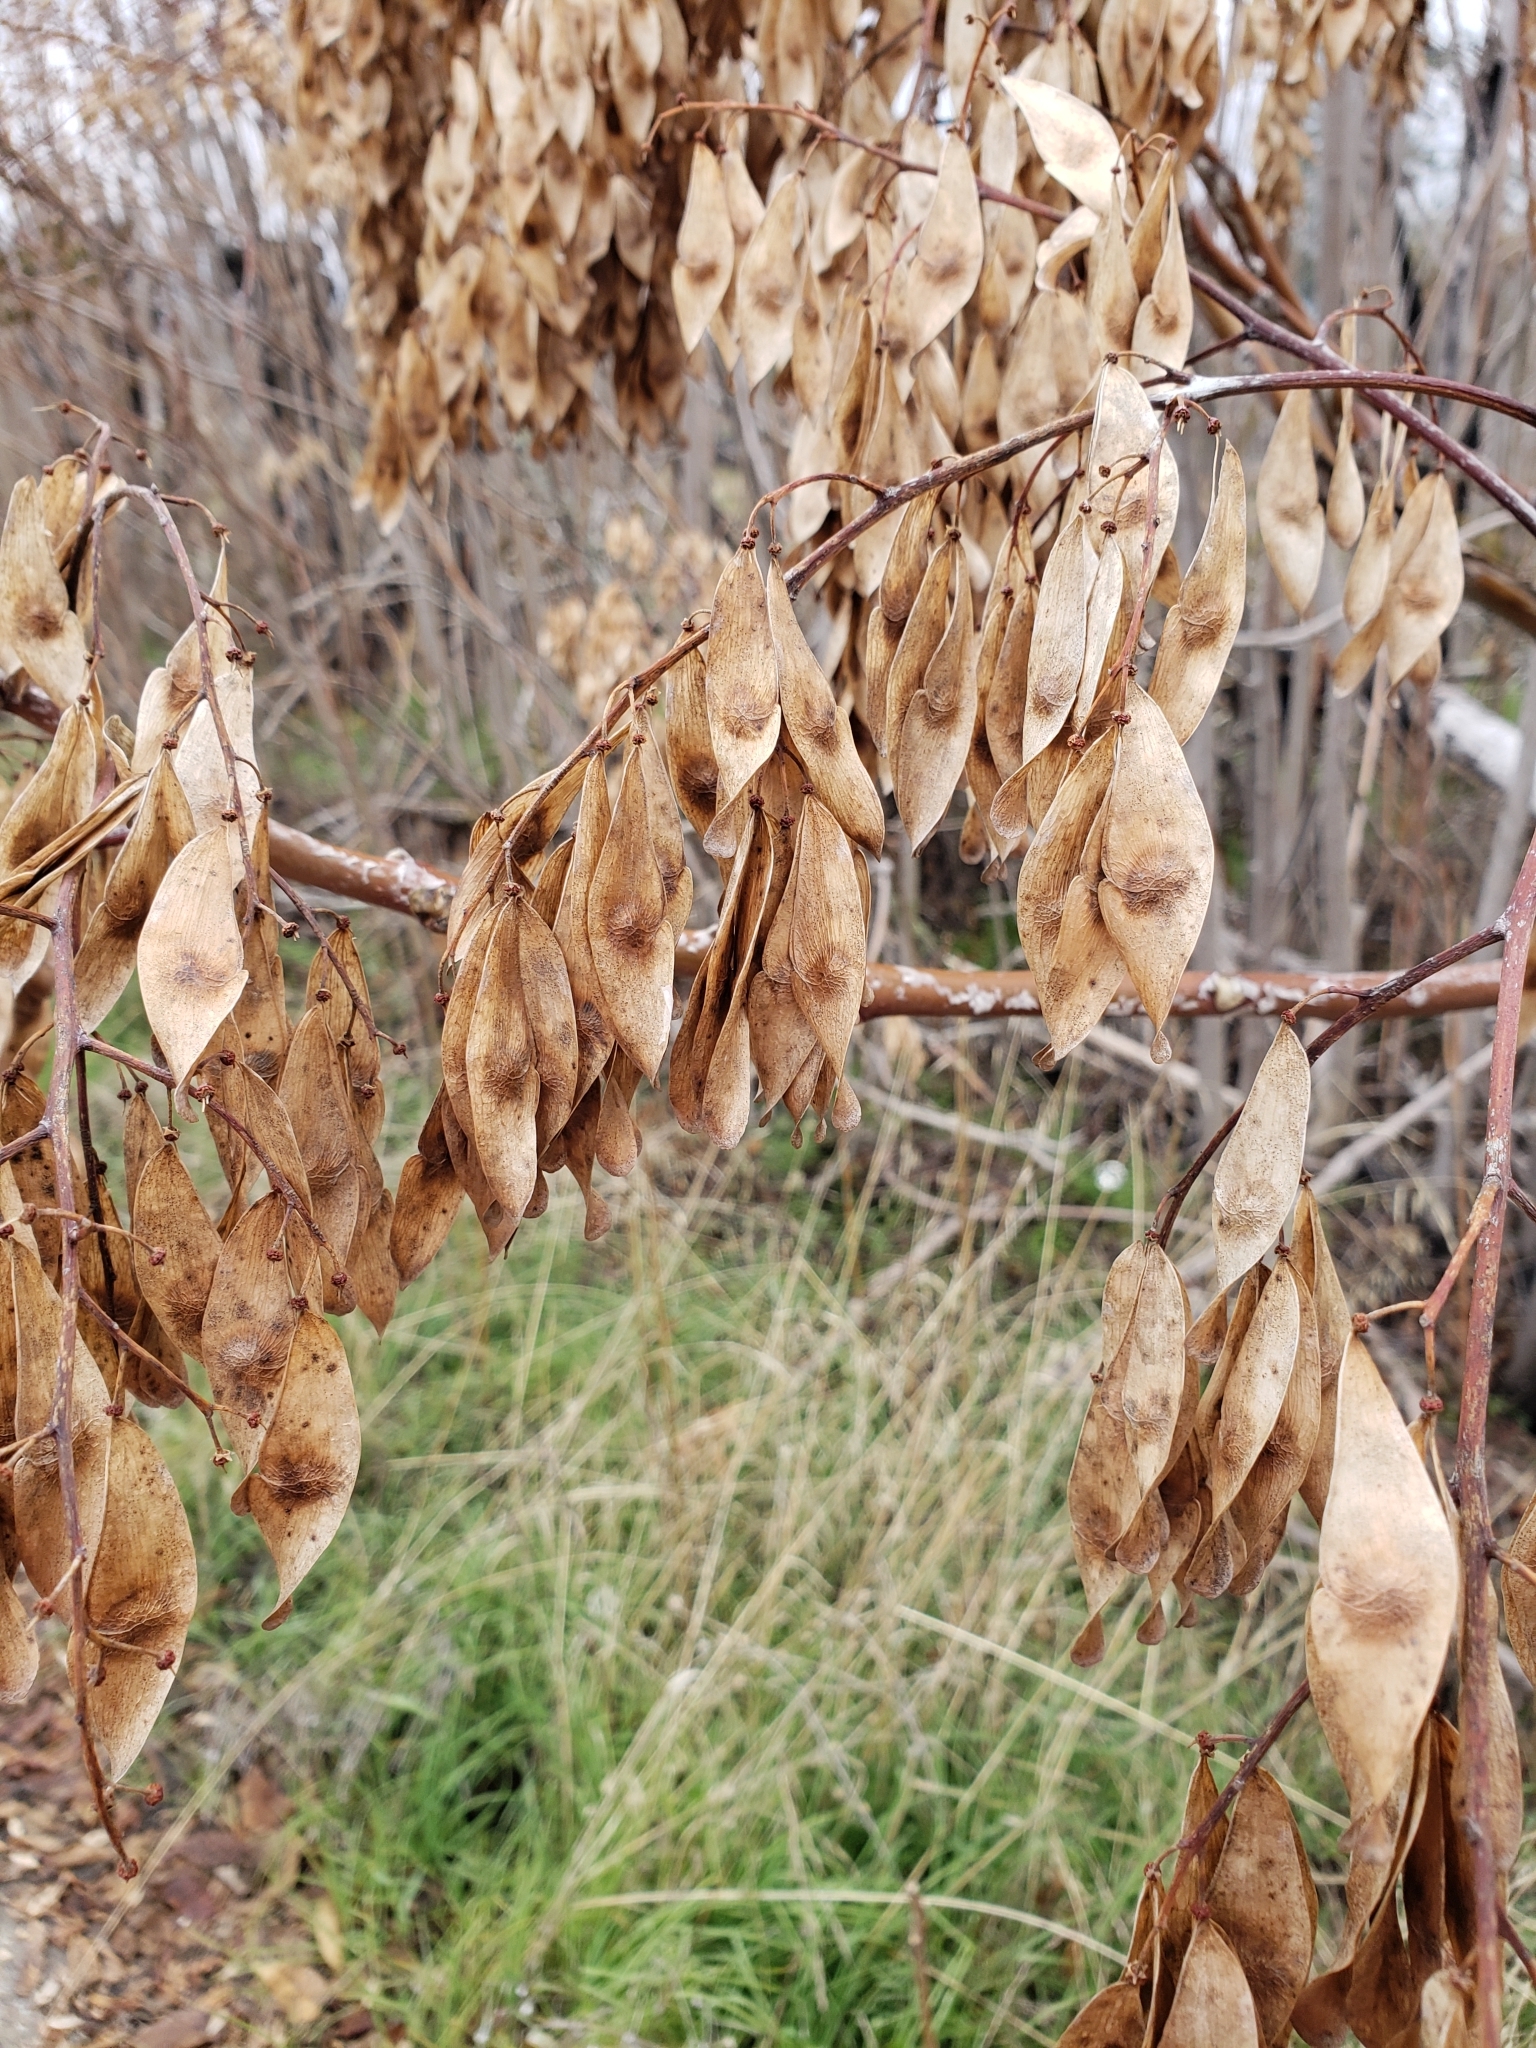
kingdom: Plantae
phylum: Tracheophyta
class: Magnoliopsida
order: Sapindales
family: Simaroubaceae
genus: Ailanthus
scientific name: Ailanthus altissima
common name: Tree-of-heaven
